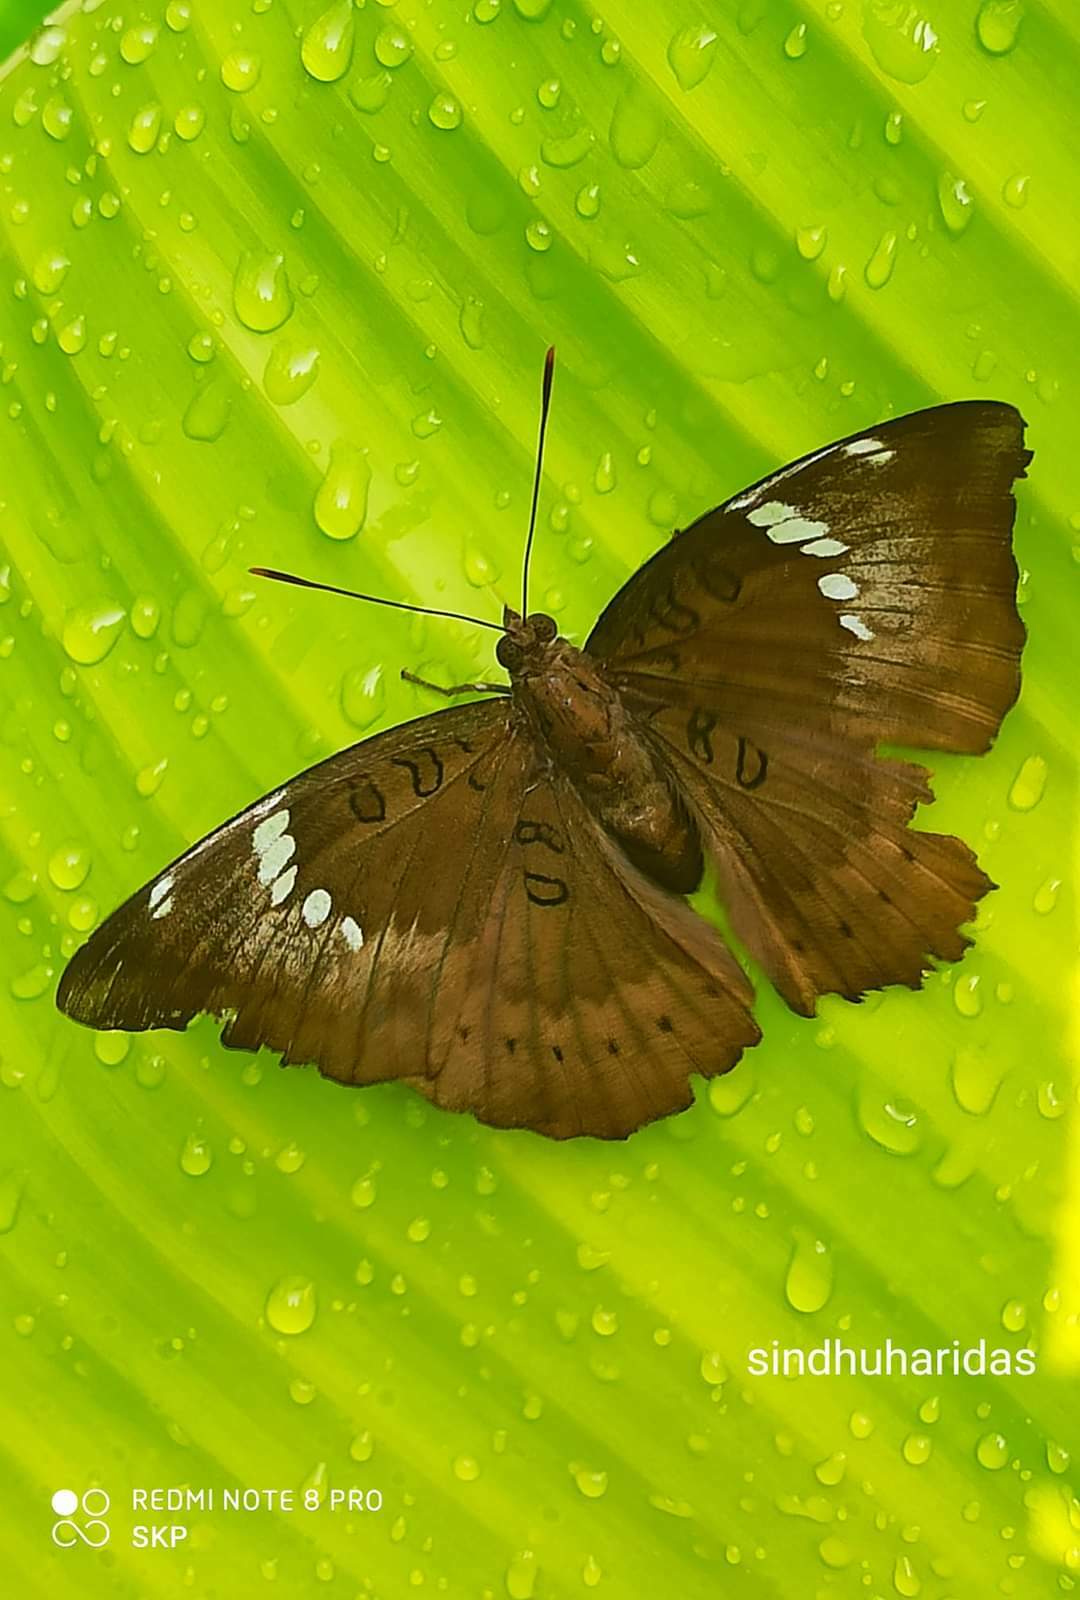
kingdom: Animalia
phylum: Arthropoda
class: Insecta
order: Lepidoptera
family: Nymphalidae
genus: Euthalia
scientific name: Euthalia aconthea
